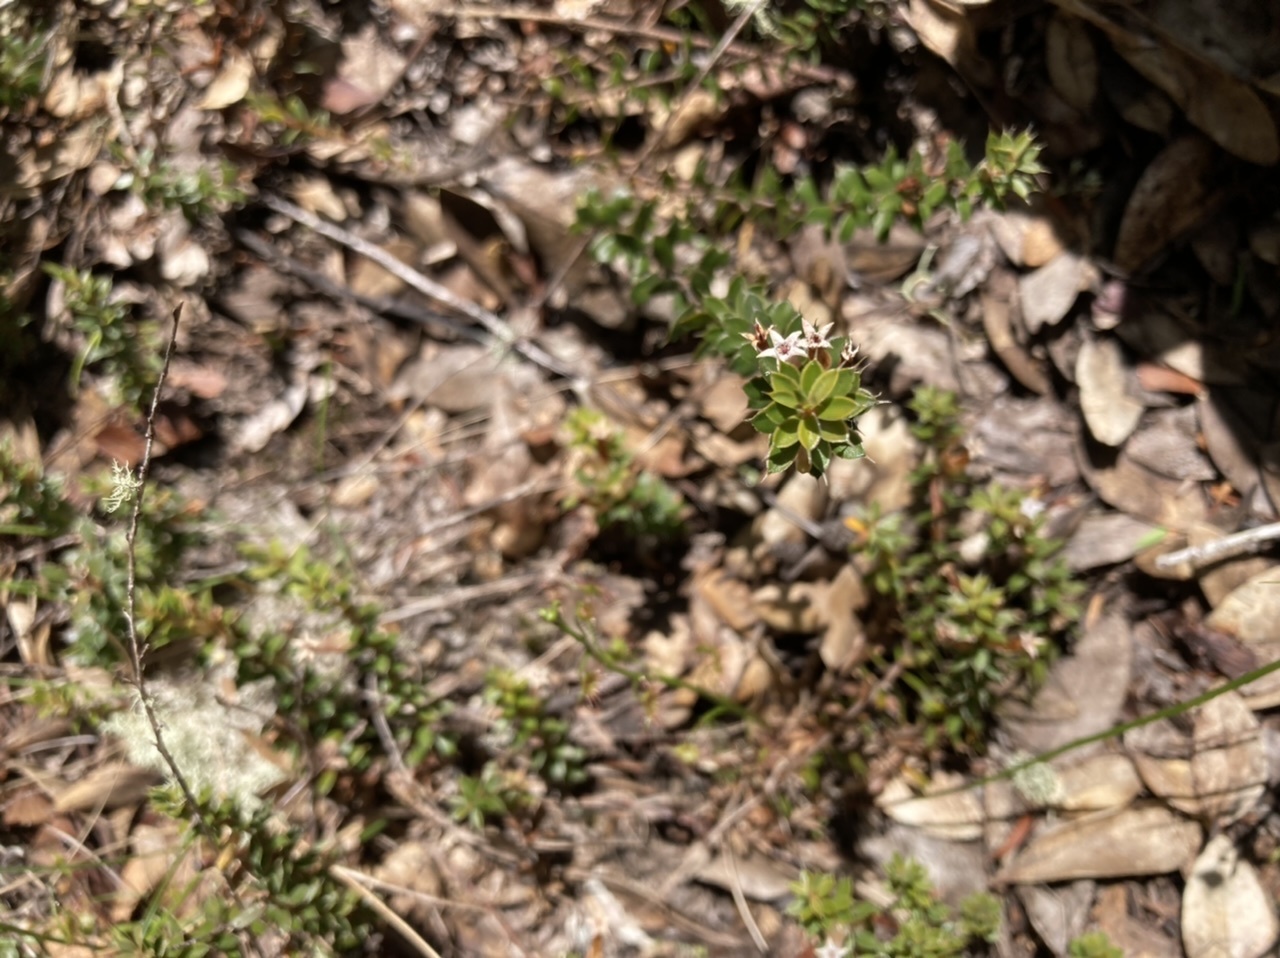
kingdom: Plantae
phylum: Tracheophyta
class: Magnoliopsida
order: Ericales
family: Ericaceae
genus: Styphelia
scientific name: Styphelia nesophila
